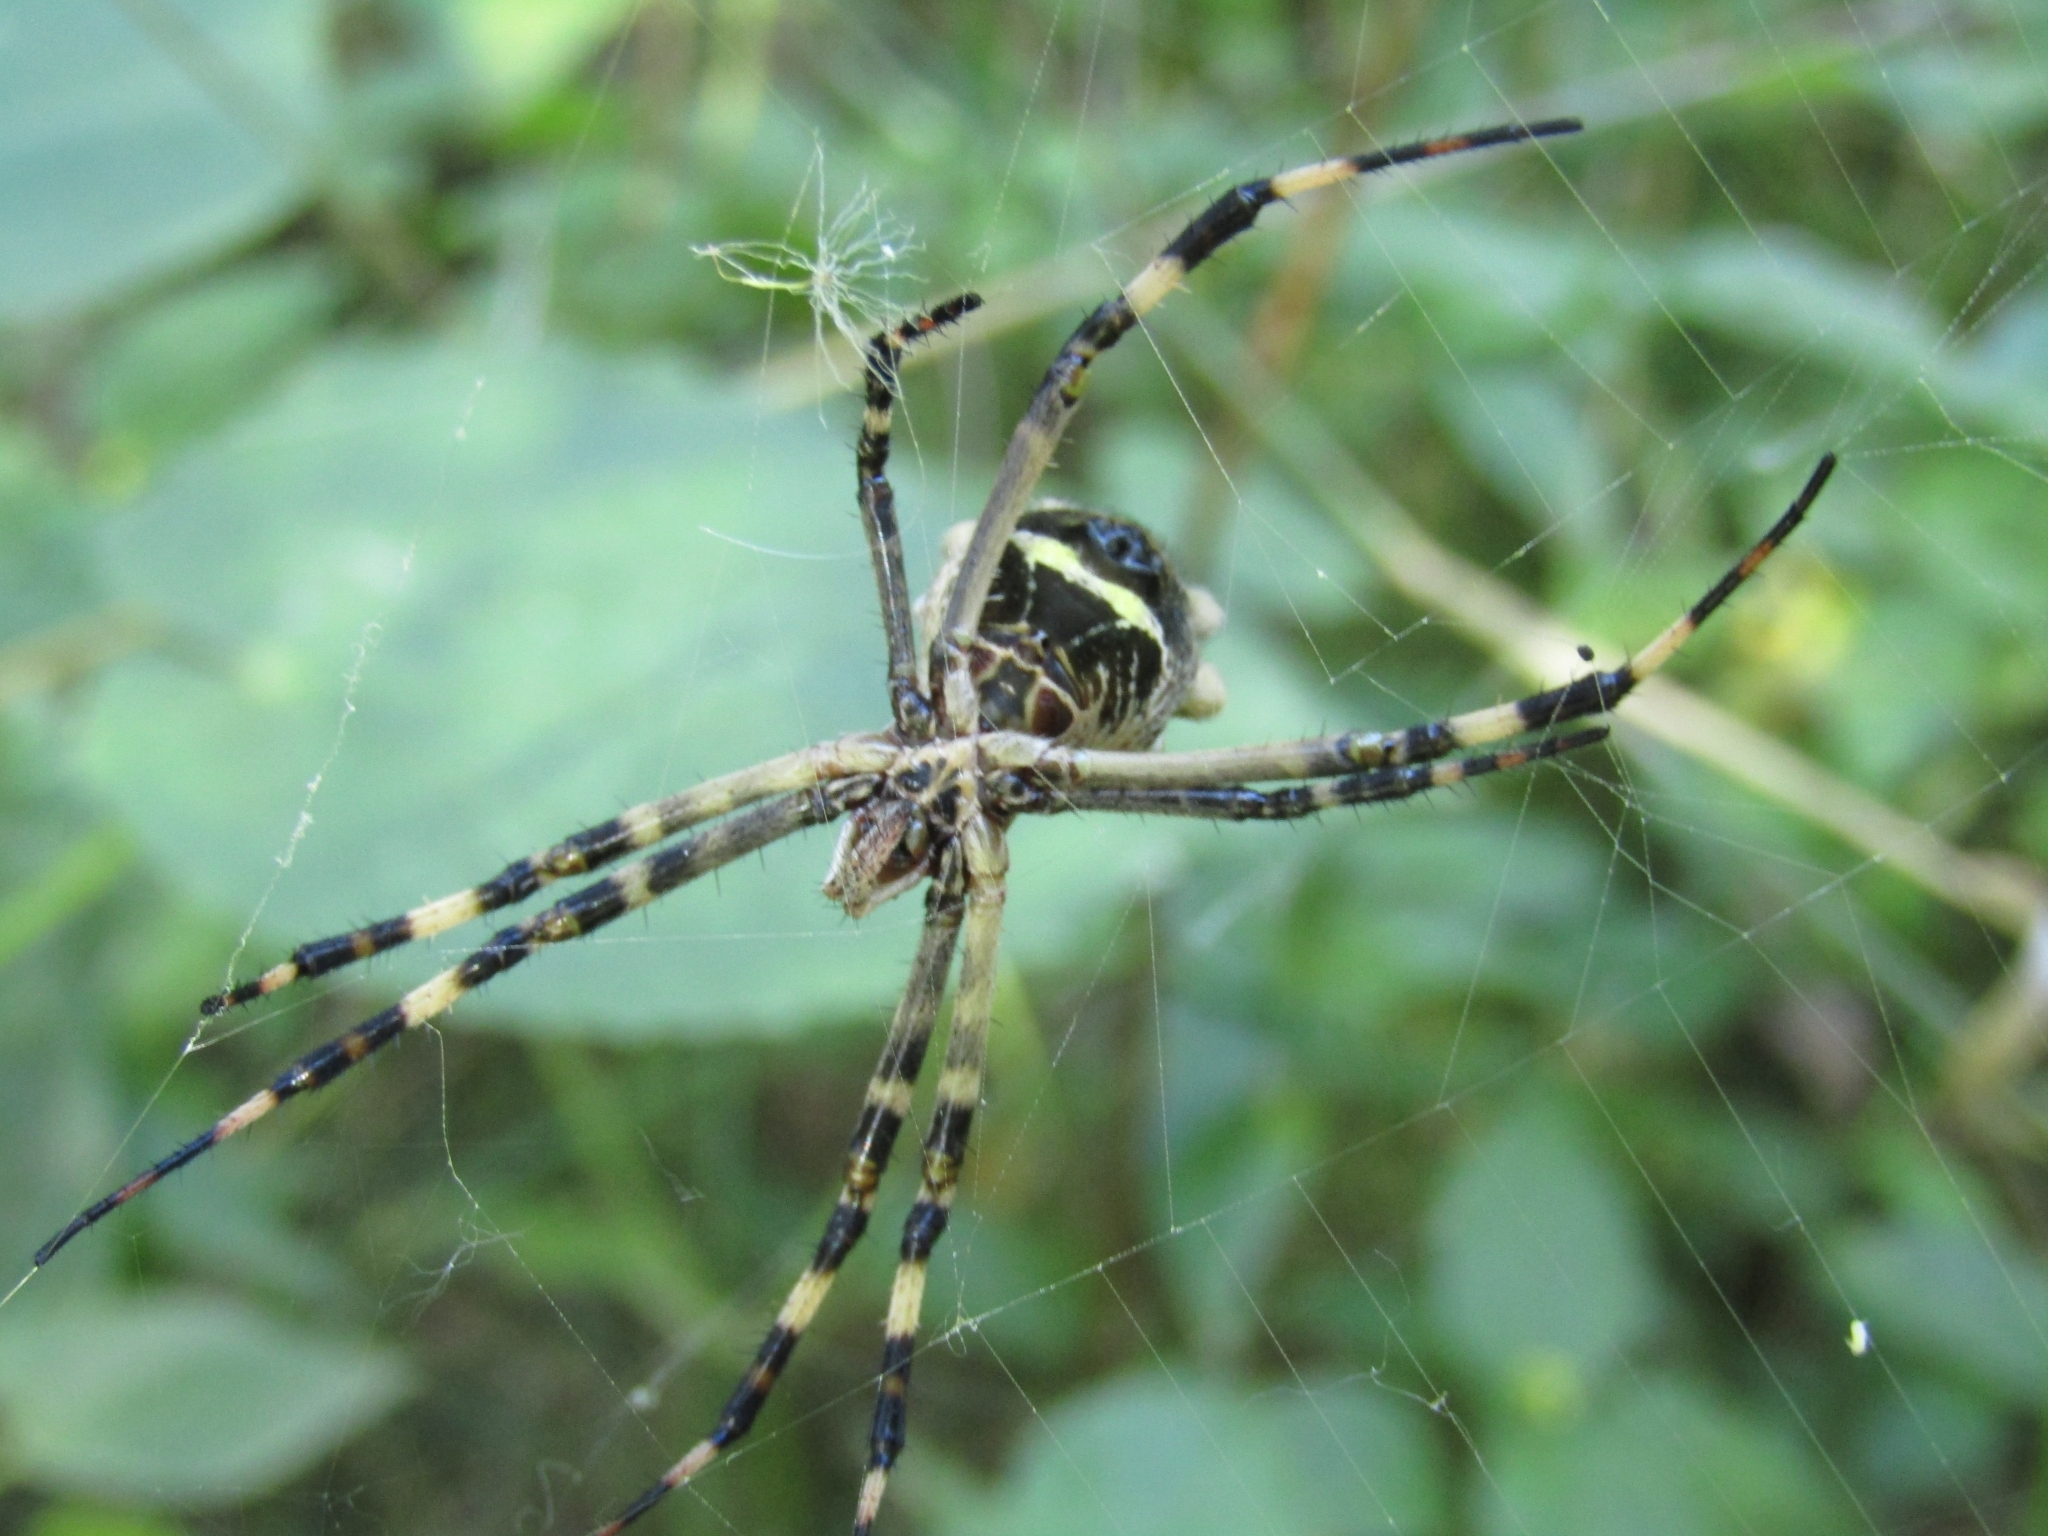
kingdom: Animalia
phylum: Arthropoda
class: Arachnida
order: Araneae
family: Araneidae
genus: Argiope
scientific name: Argiope argentata
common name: Orb weavers
